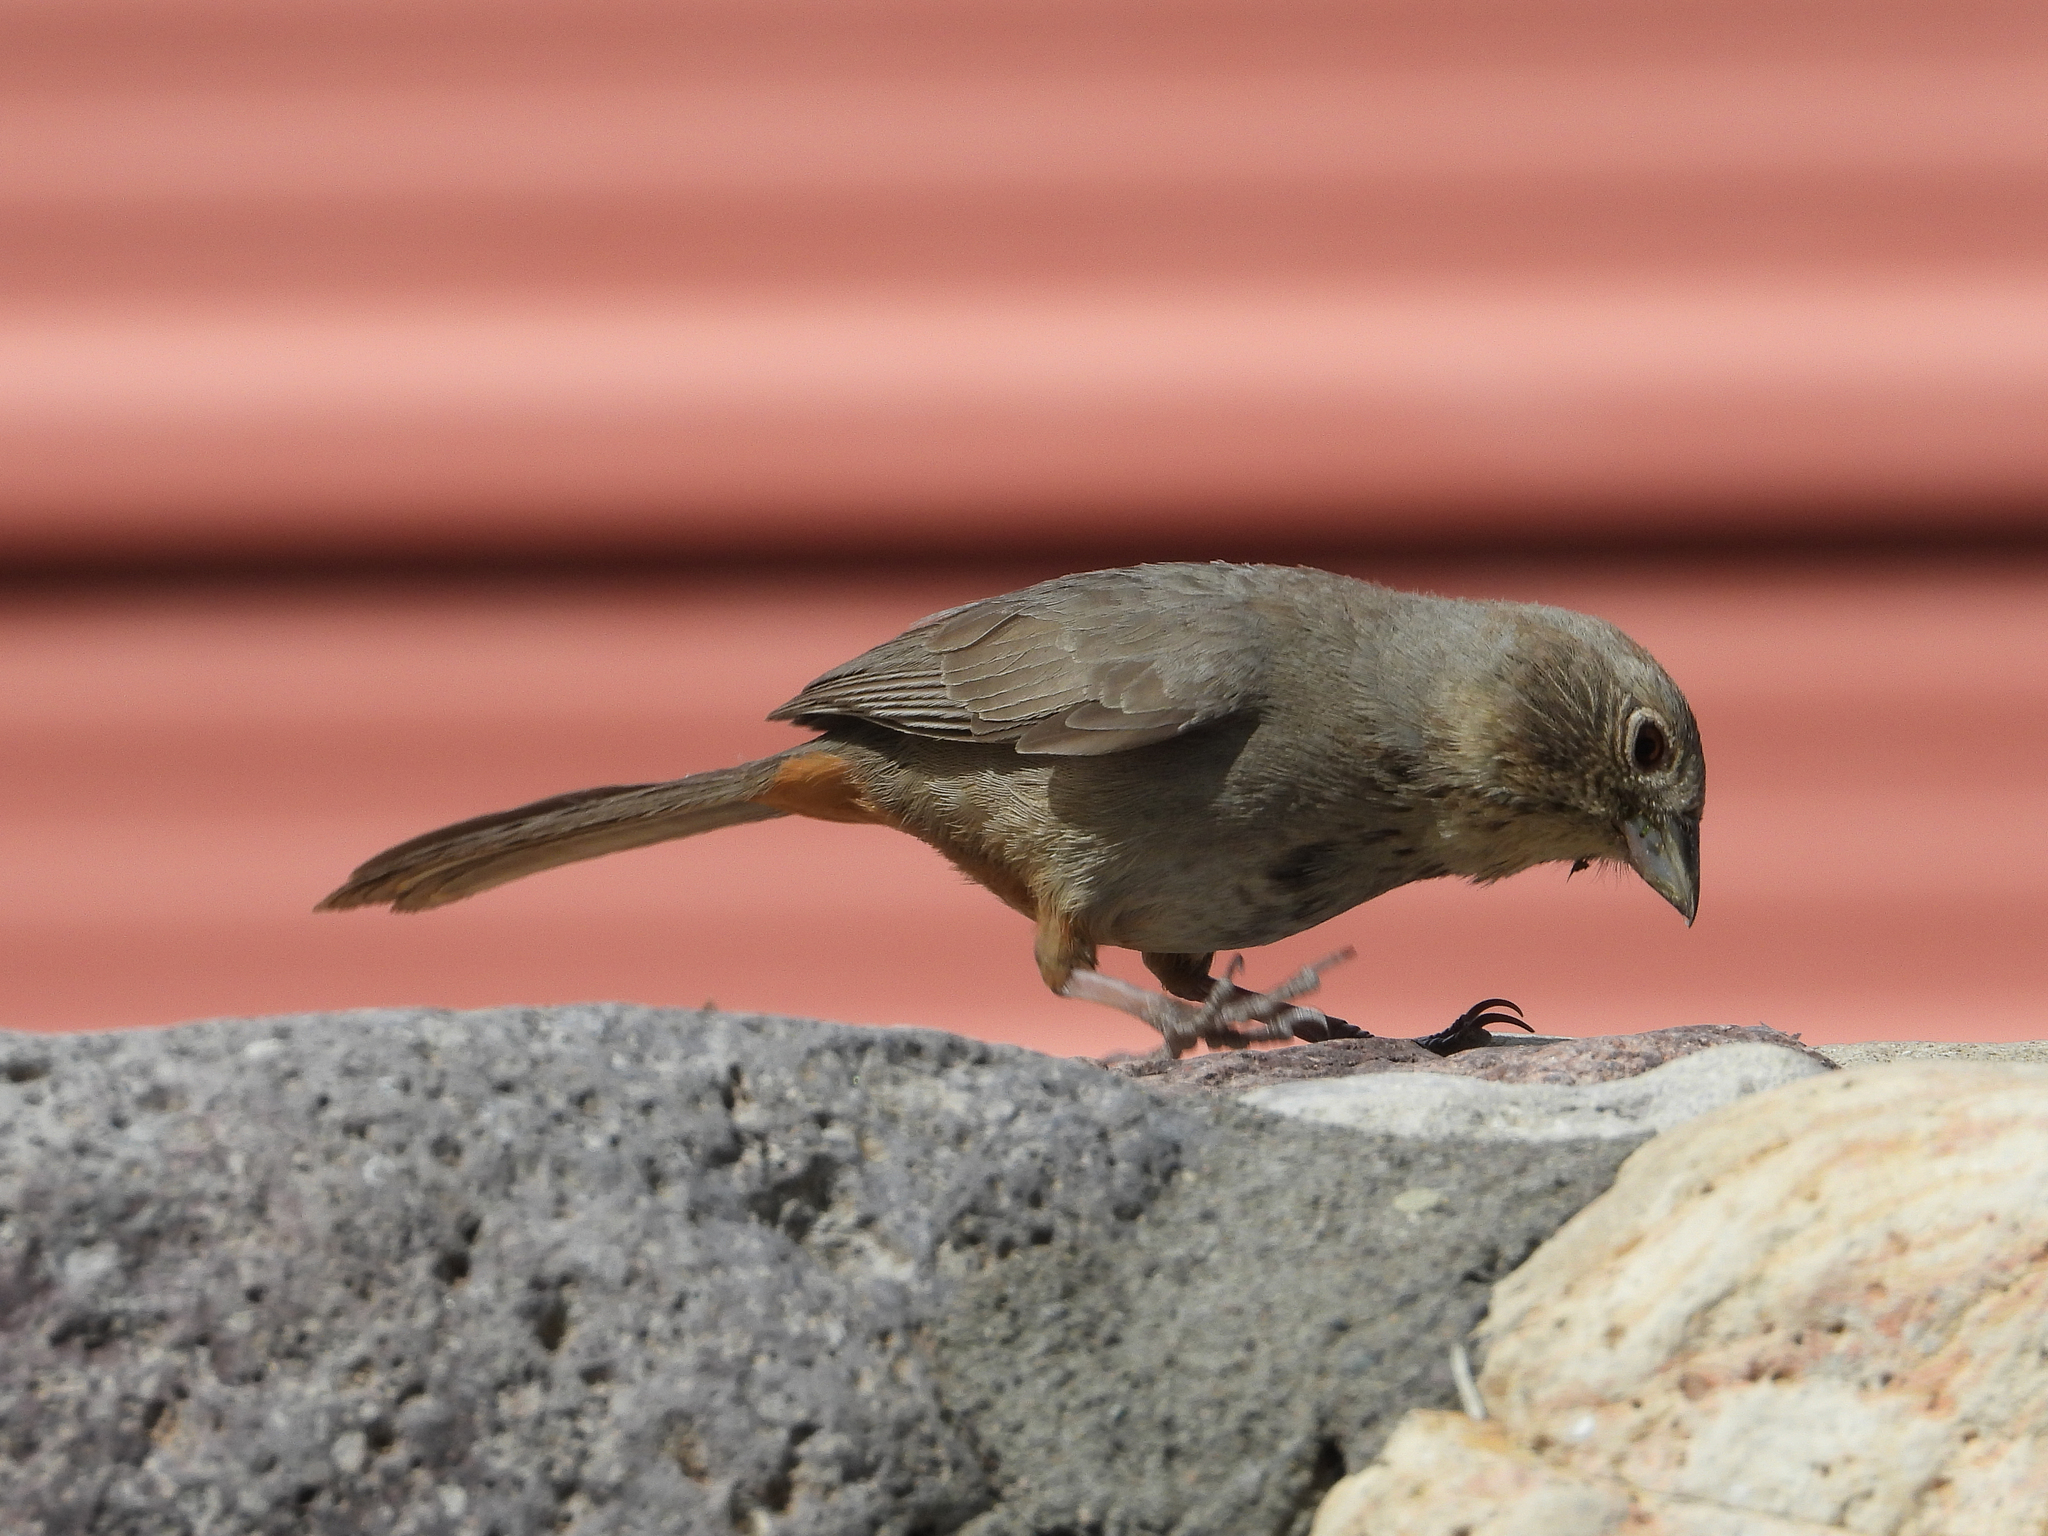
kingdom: Animalia
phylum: Chordata
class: Aves
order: Passeriformes
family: Passerellidae
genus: Melozone
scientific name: Melozone fusca
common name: Canyon towhee
